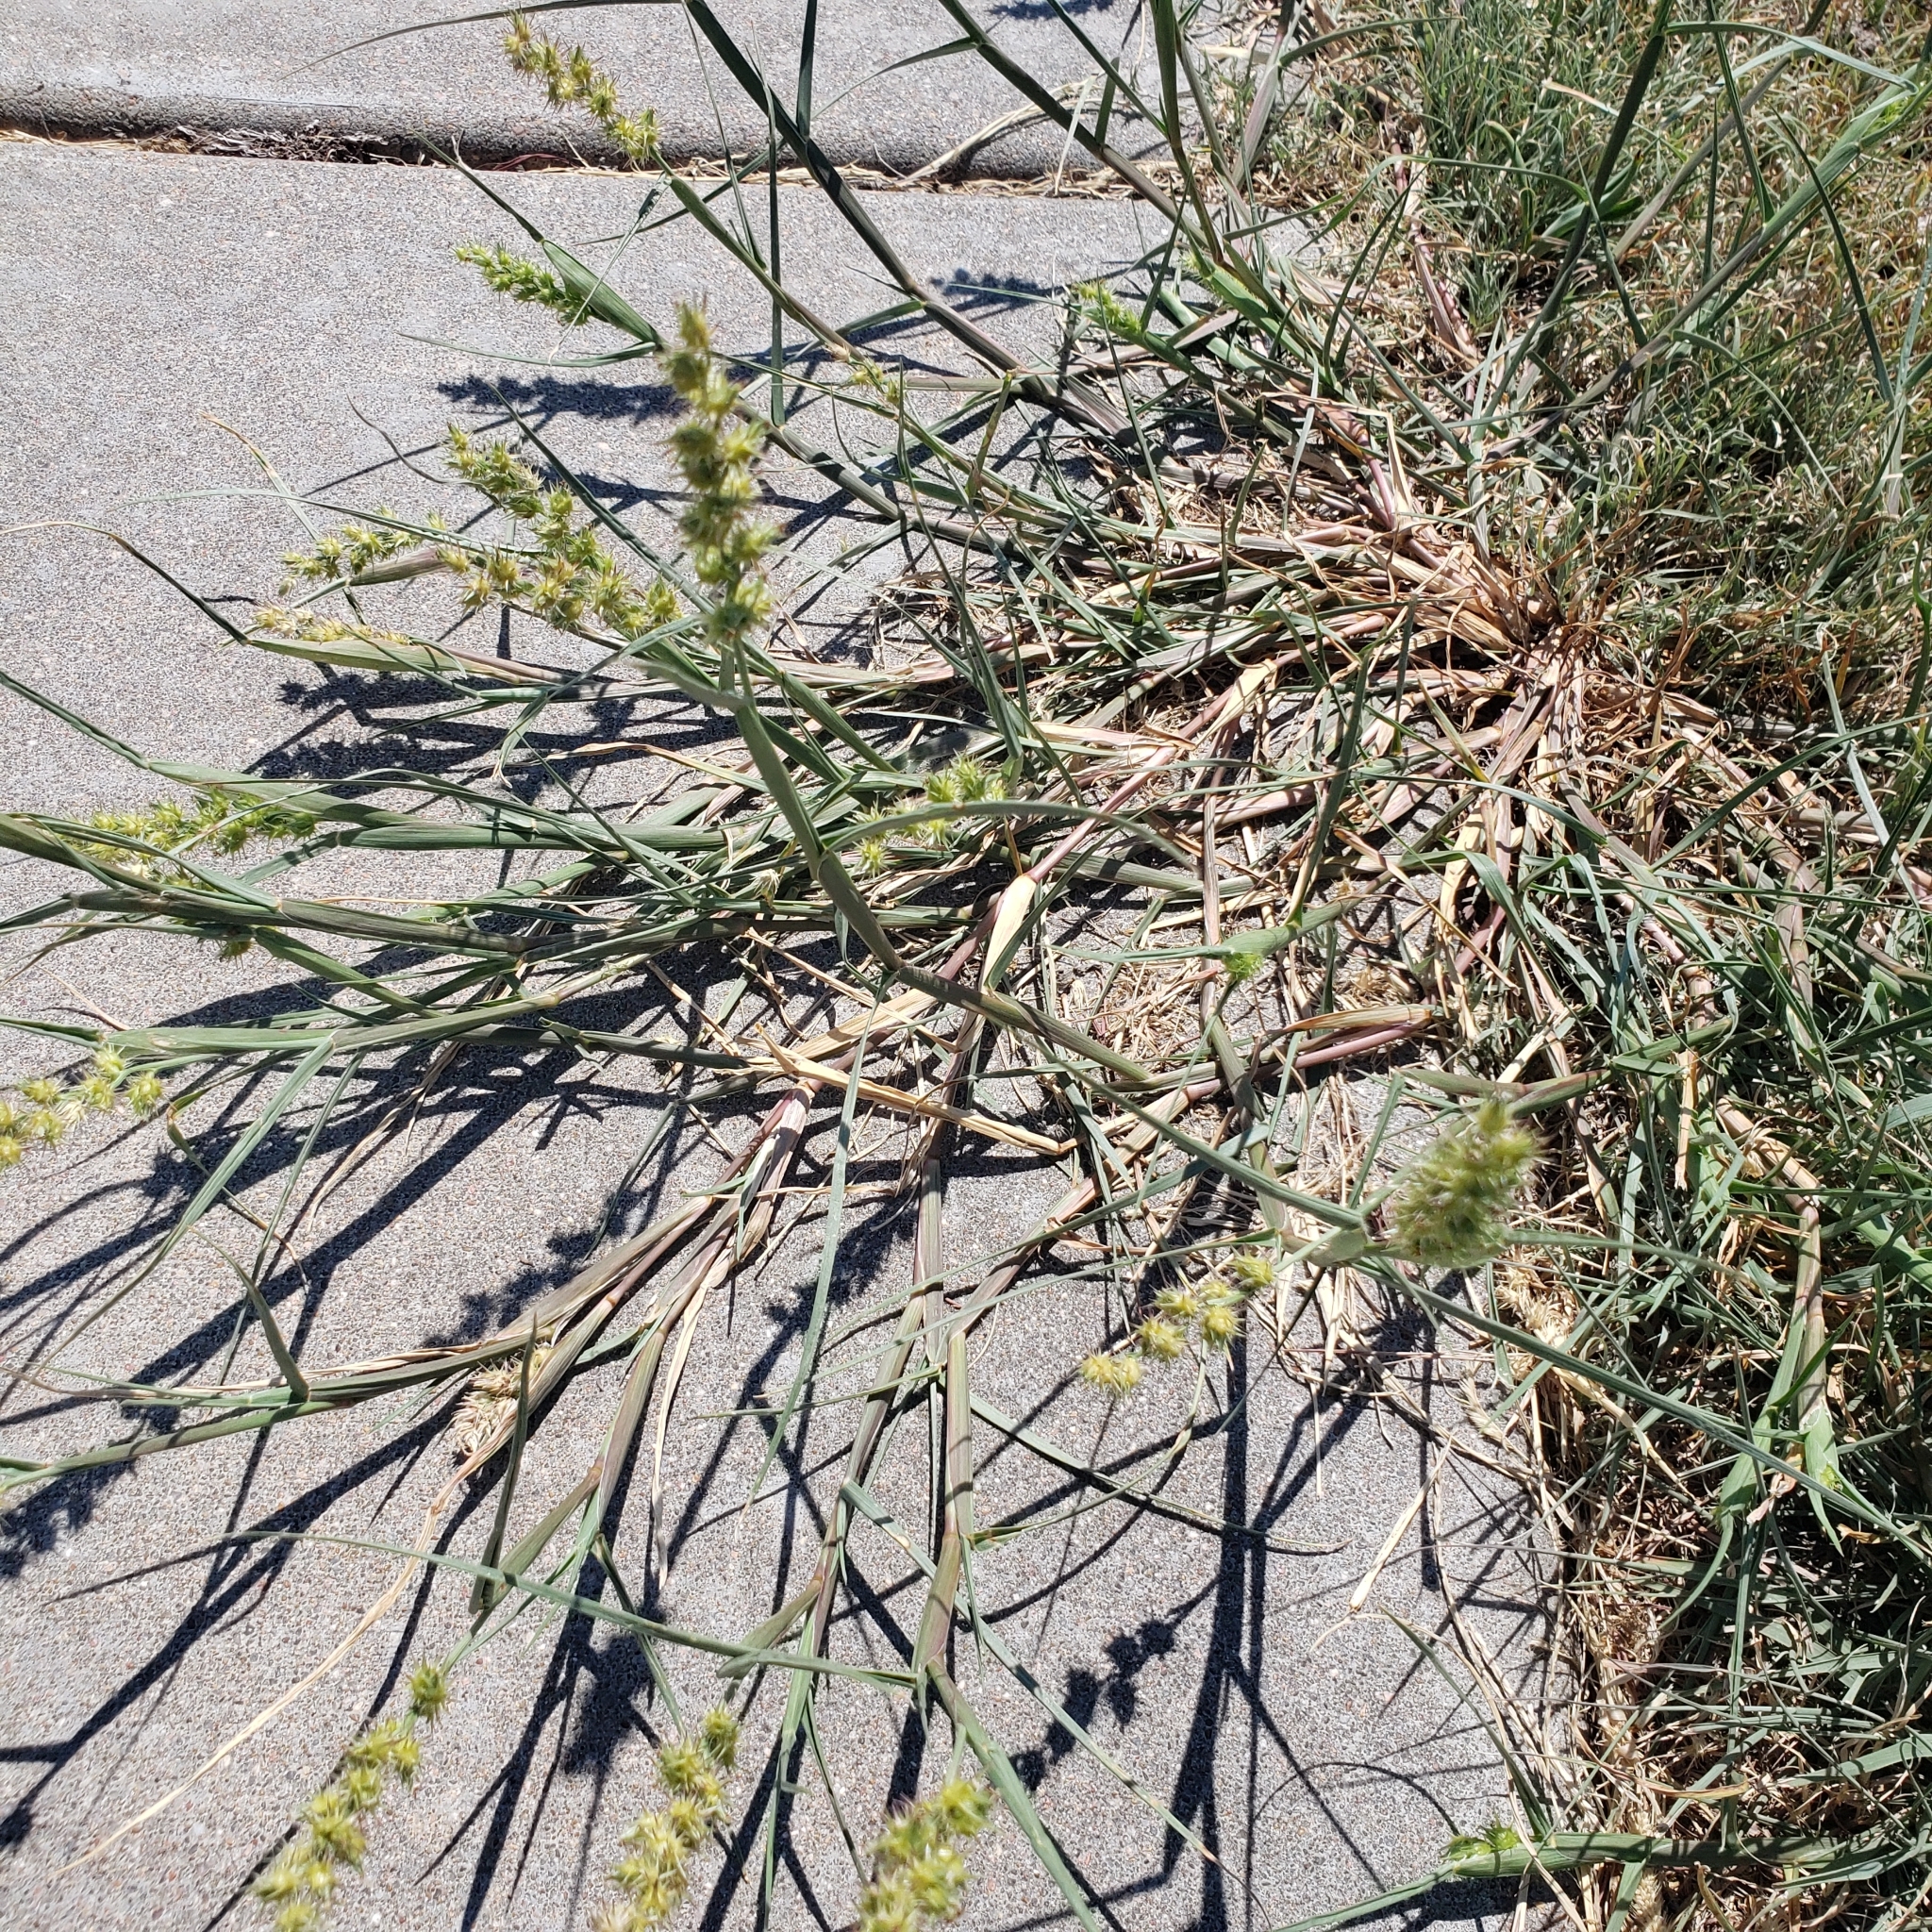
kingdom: Plantae
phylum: Tracheophyta
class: Liliopsida
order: Poales
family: Poaceae
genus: Cenchrus
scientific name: Cenchrus longispinus
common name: Mat sandbur
